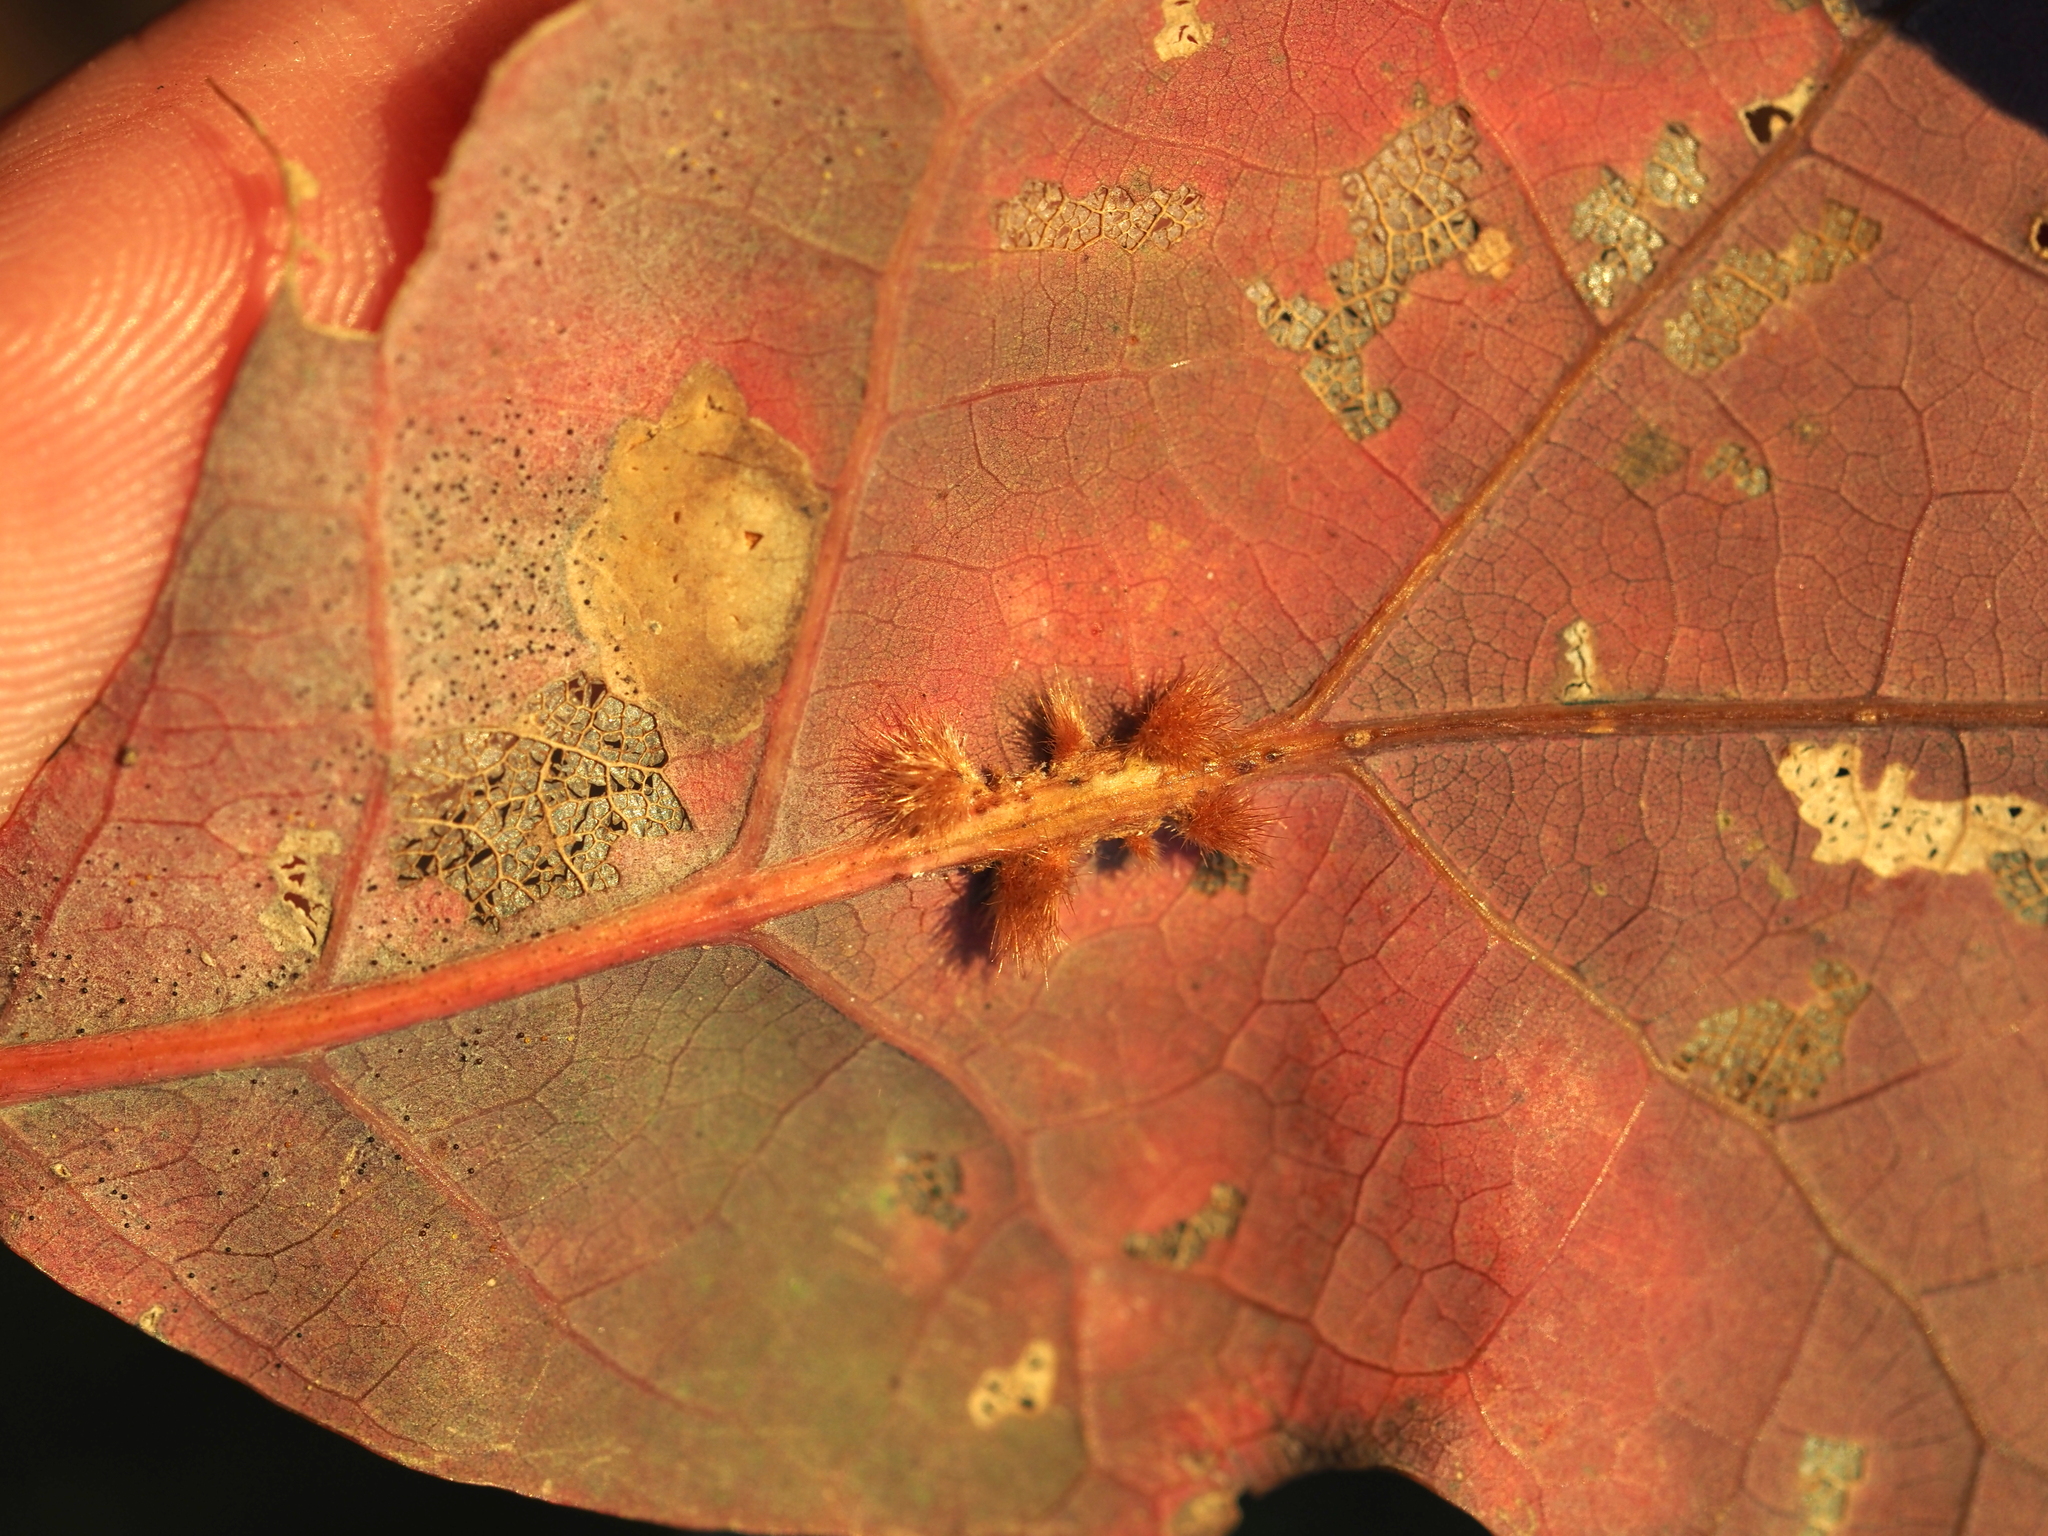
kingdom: Animalia
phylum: Arthropoda
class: Insecta
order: Hymenoptera
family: Cynipidae
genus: Andricus
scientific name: Andricus
